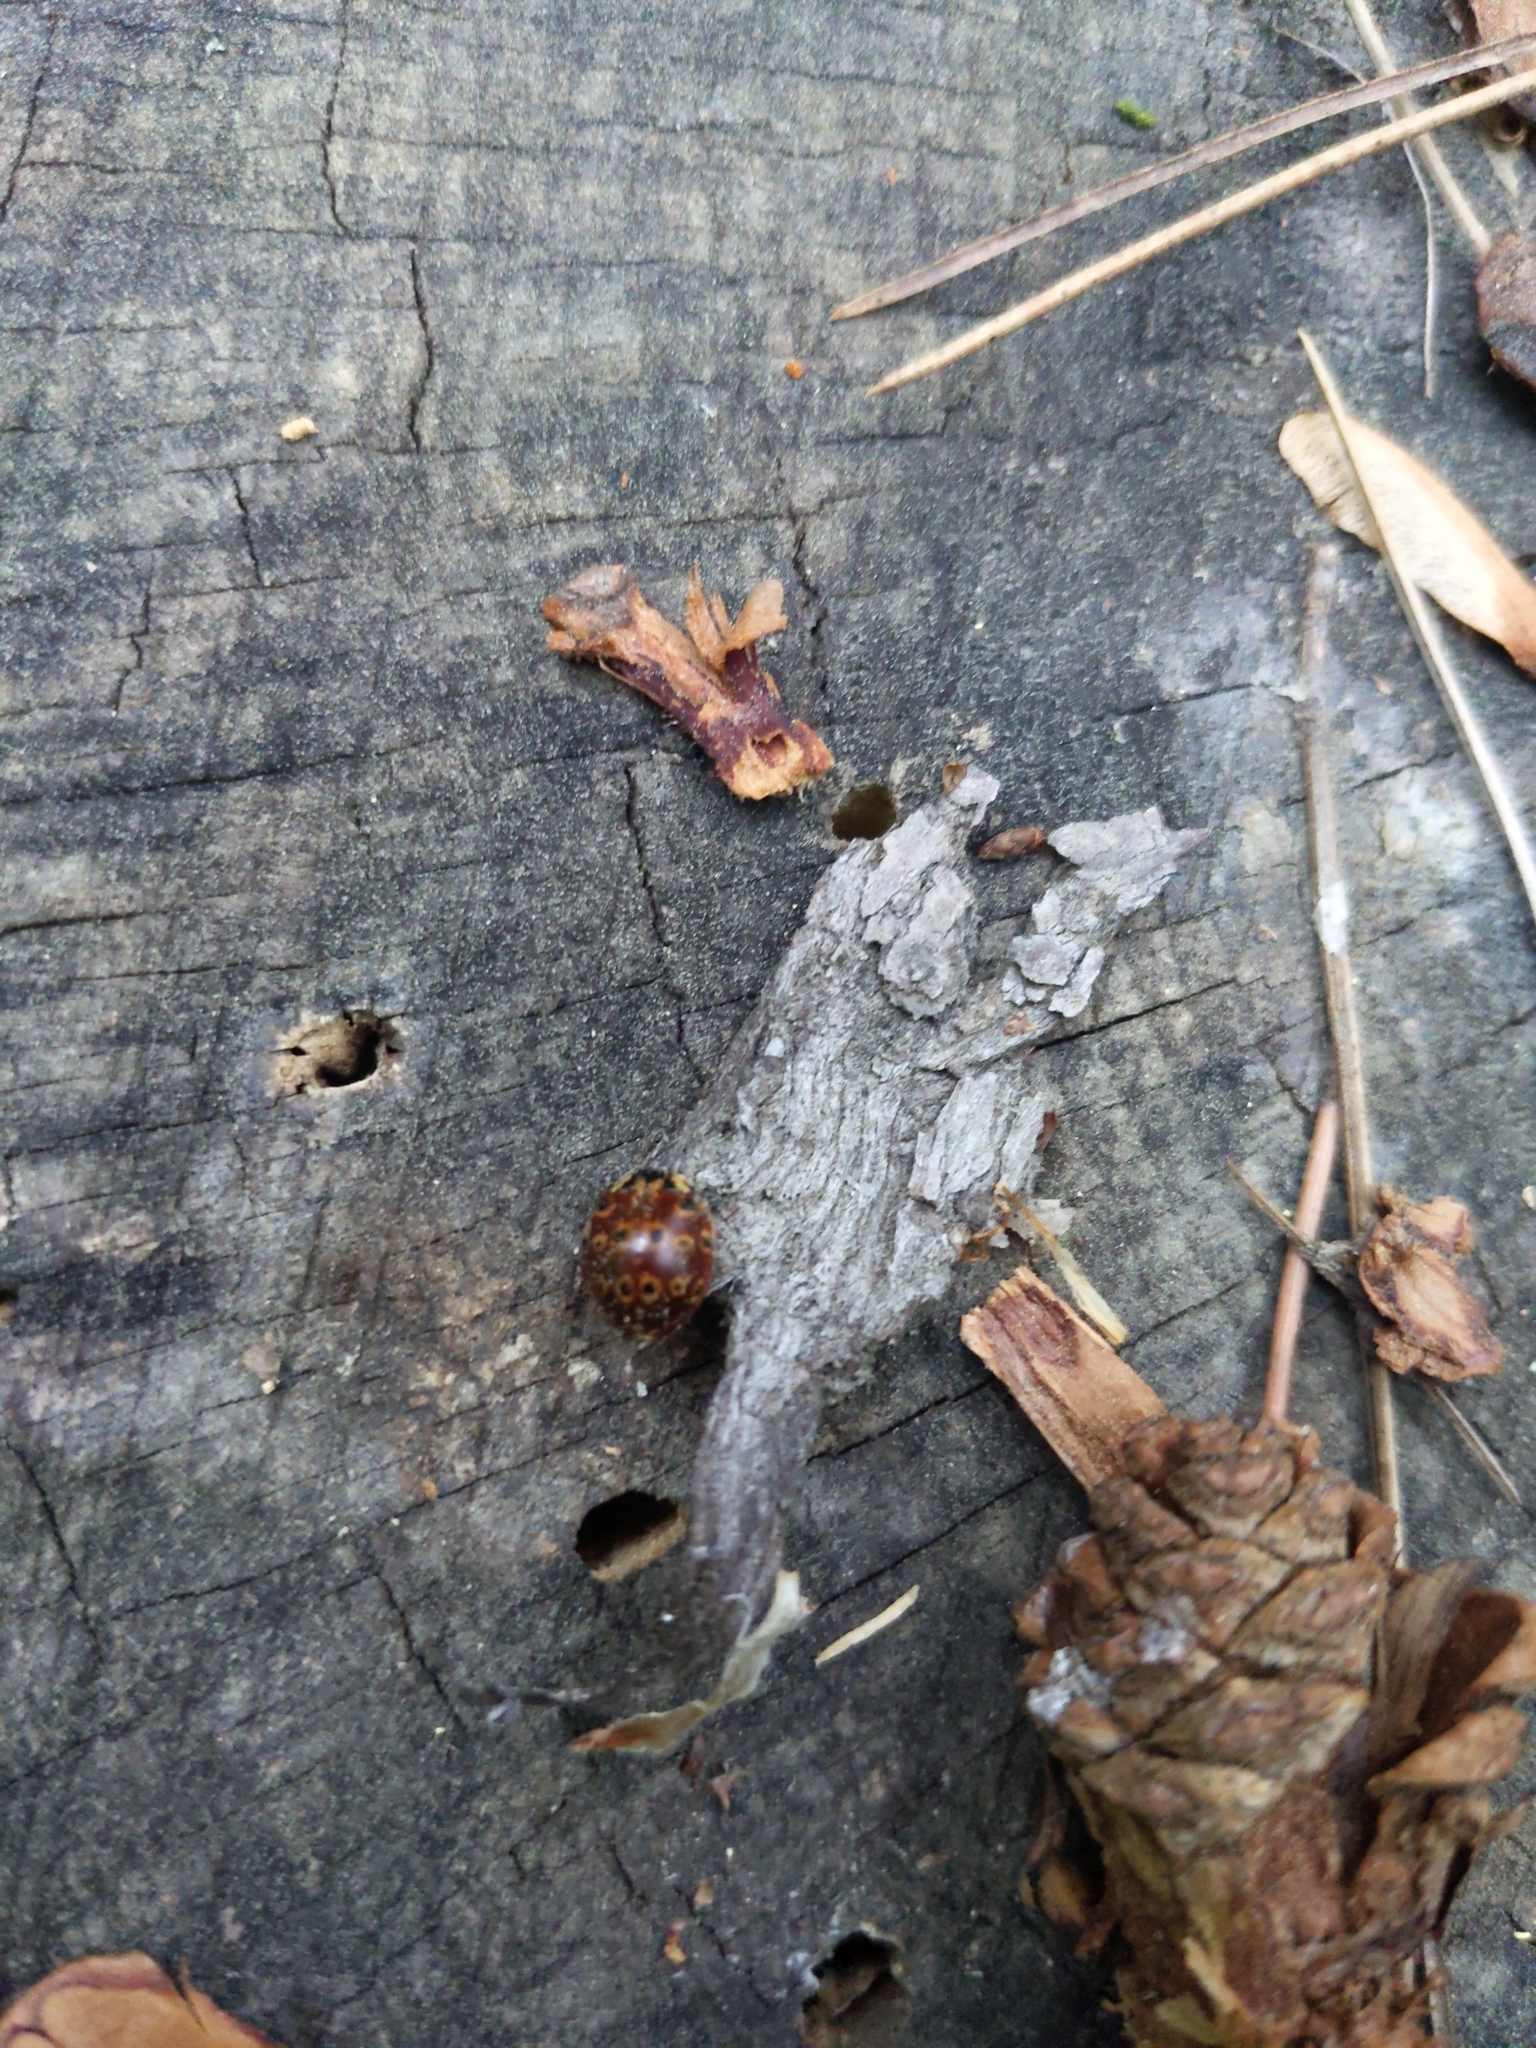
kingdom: Animalia
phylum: Arthropoda
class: Insecta
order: Coleoptera
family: Coccinellidae
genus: Anatis
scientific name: Anatis mali
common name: Eye-spotted lady beetle
